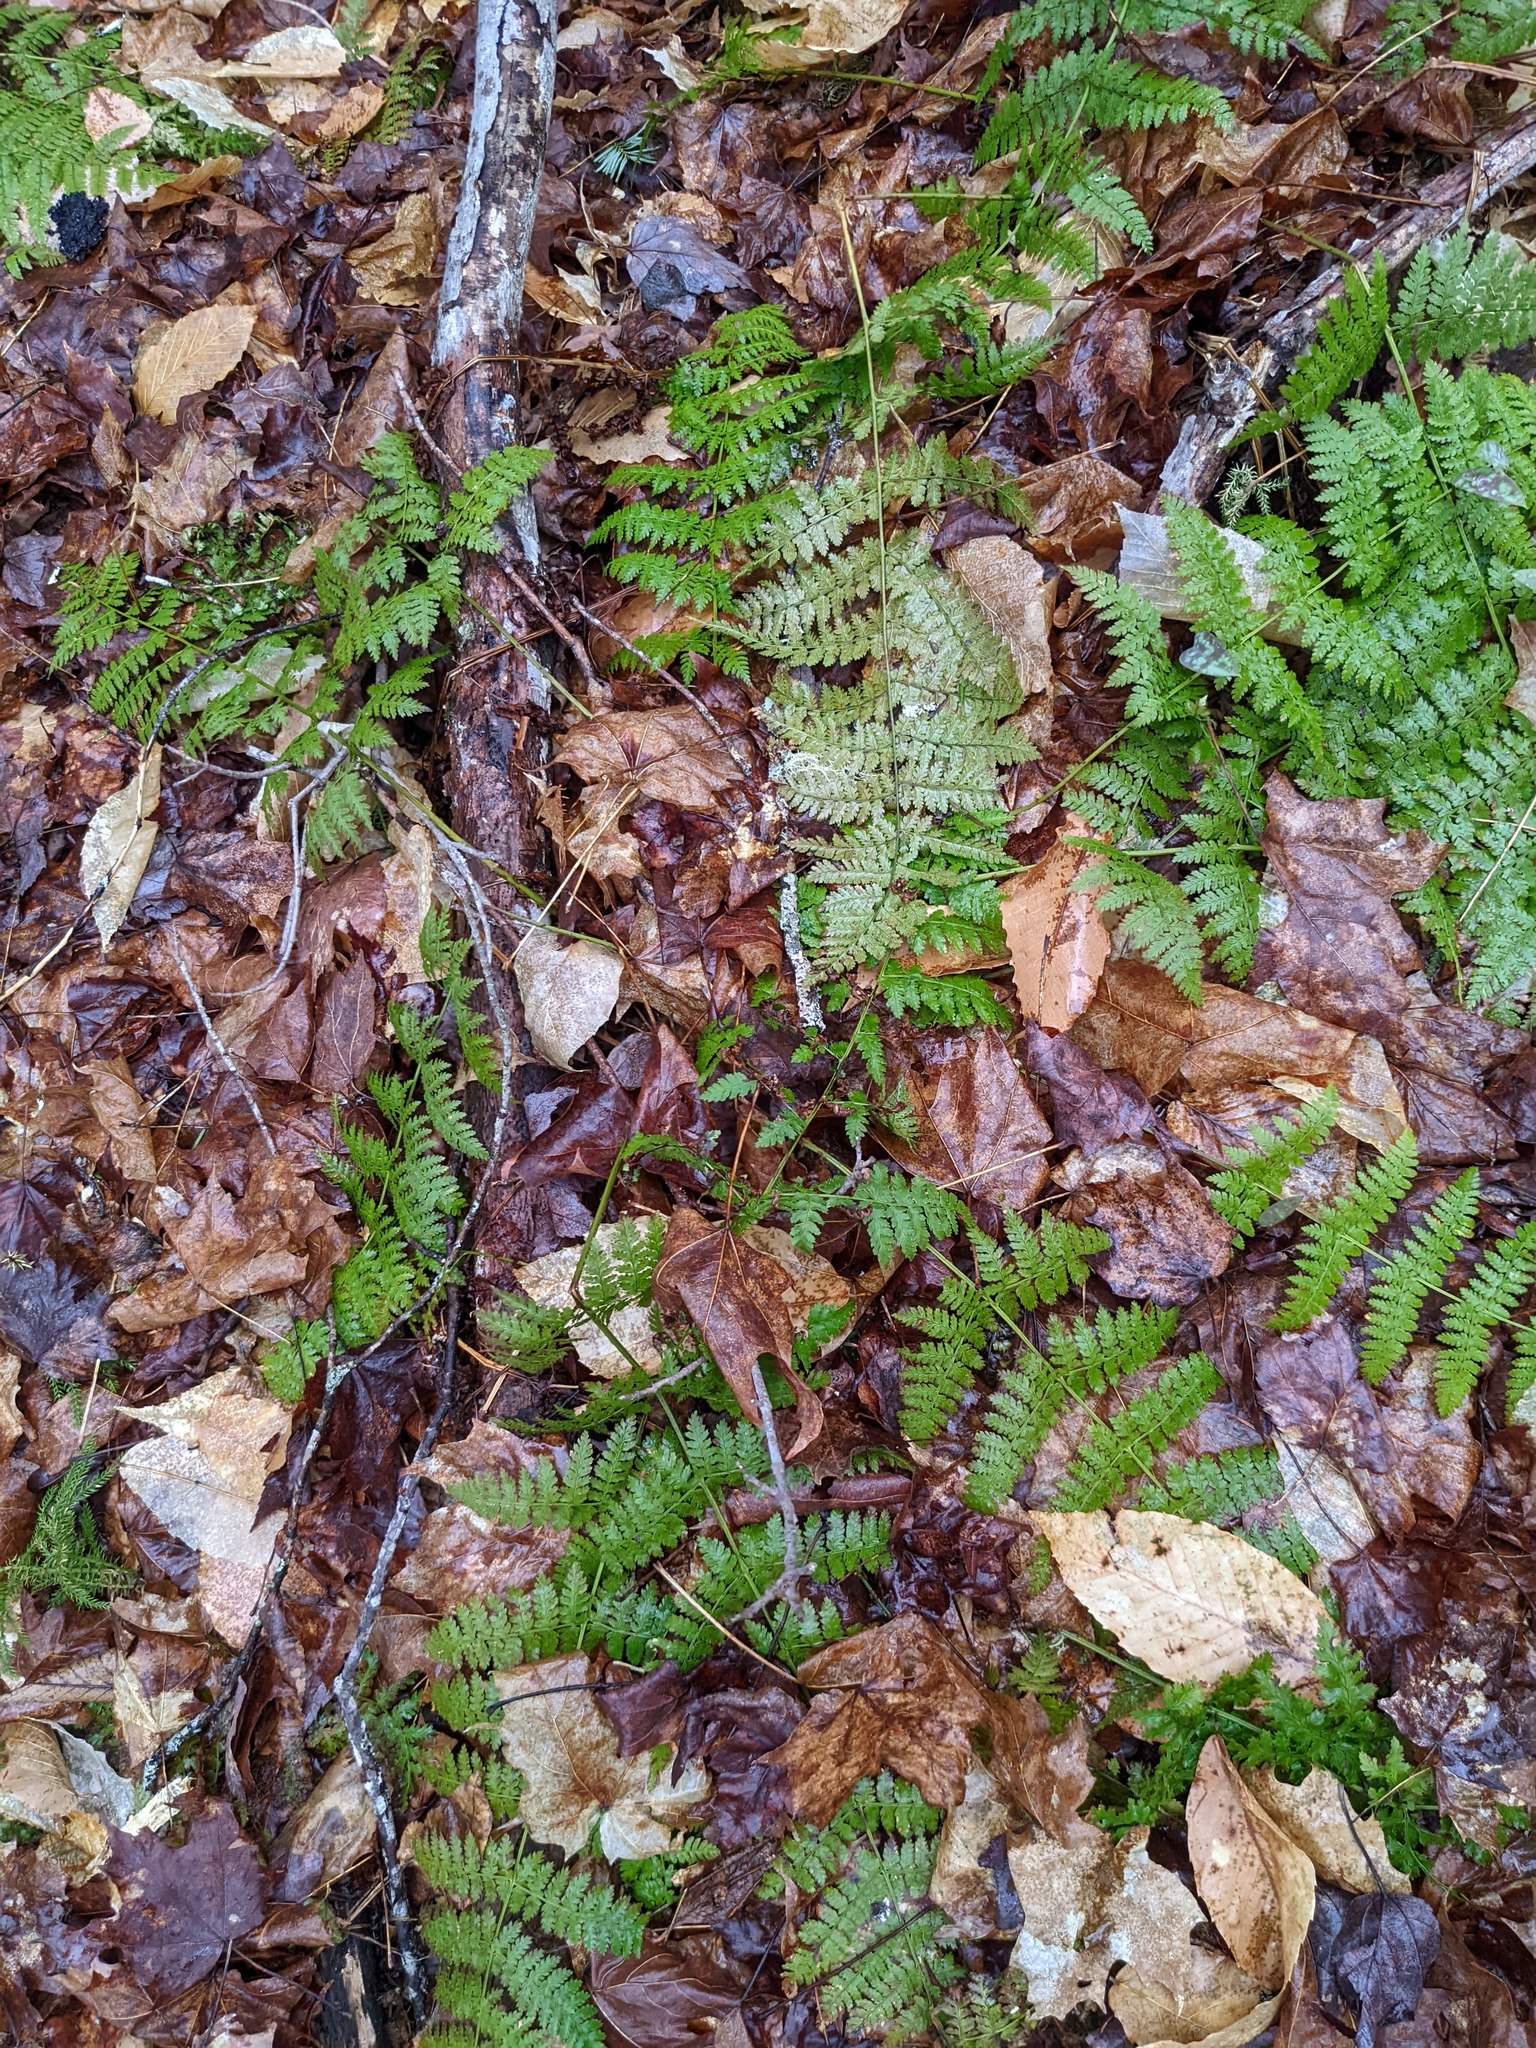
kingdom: Plantae
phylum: Tracheophyta
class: Polypodiopsida
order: Polypodiales
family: Dryopteridaceae
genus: Dryopteris
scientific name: Dryopteris intermedia
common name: Evergreen wood fern
